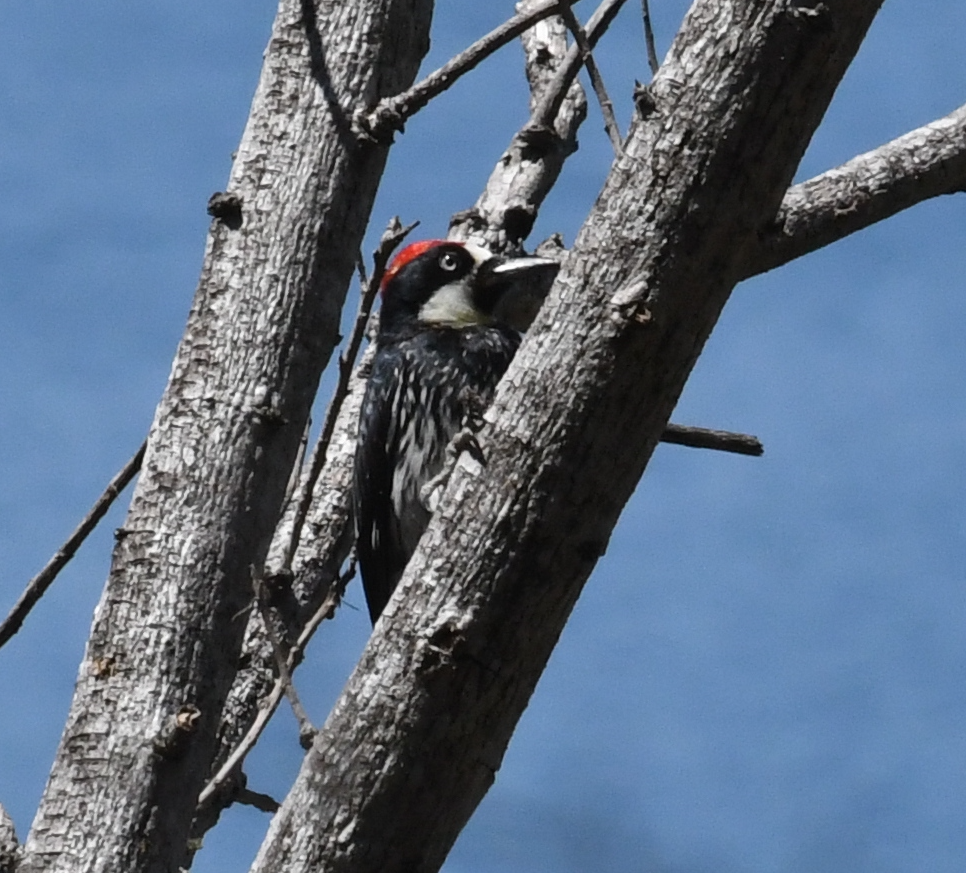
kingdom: Animalia
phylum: Chordata
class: Aves
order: Piciformes
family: Picidae
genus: Melanerpes
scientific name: Melanerpes formicivorus
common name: Acorn woodpecker
